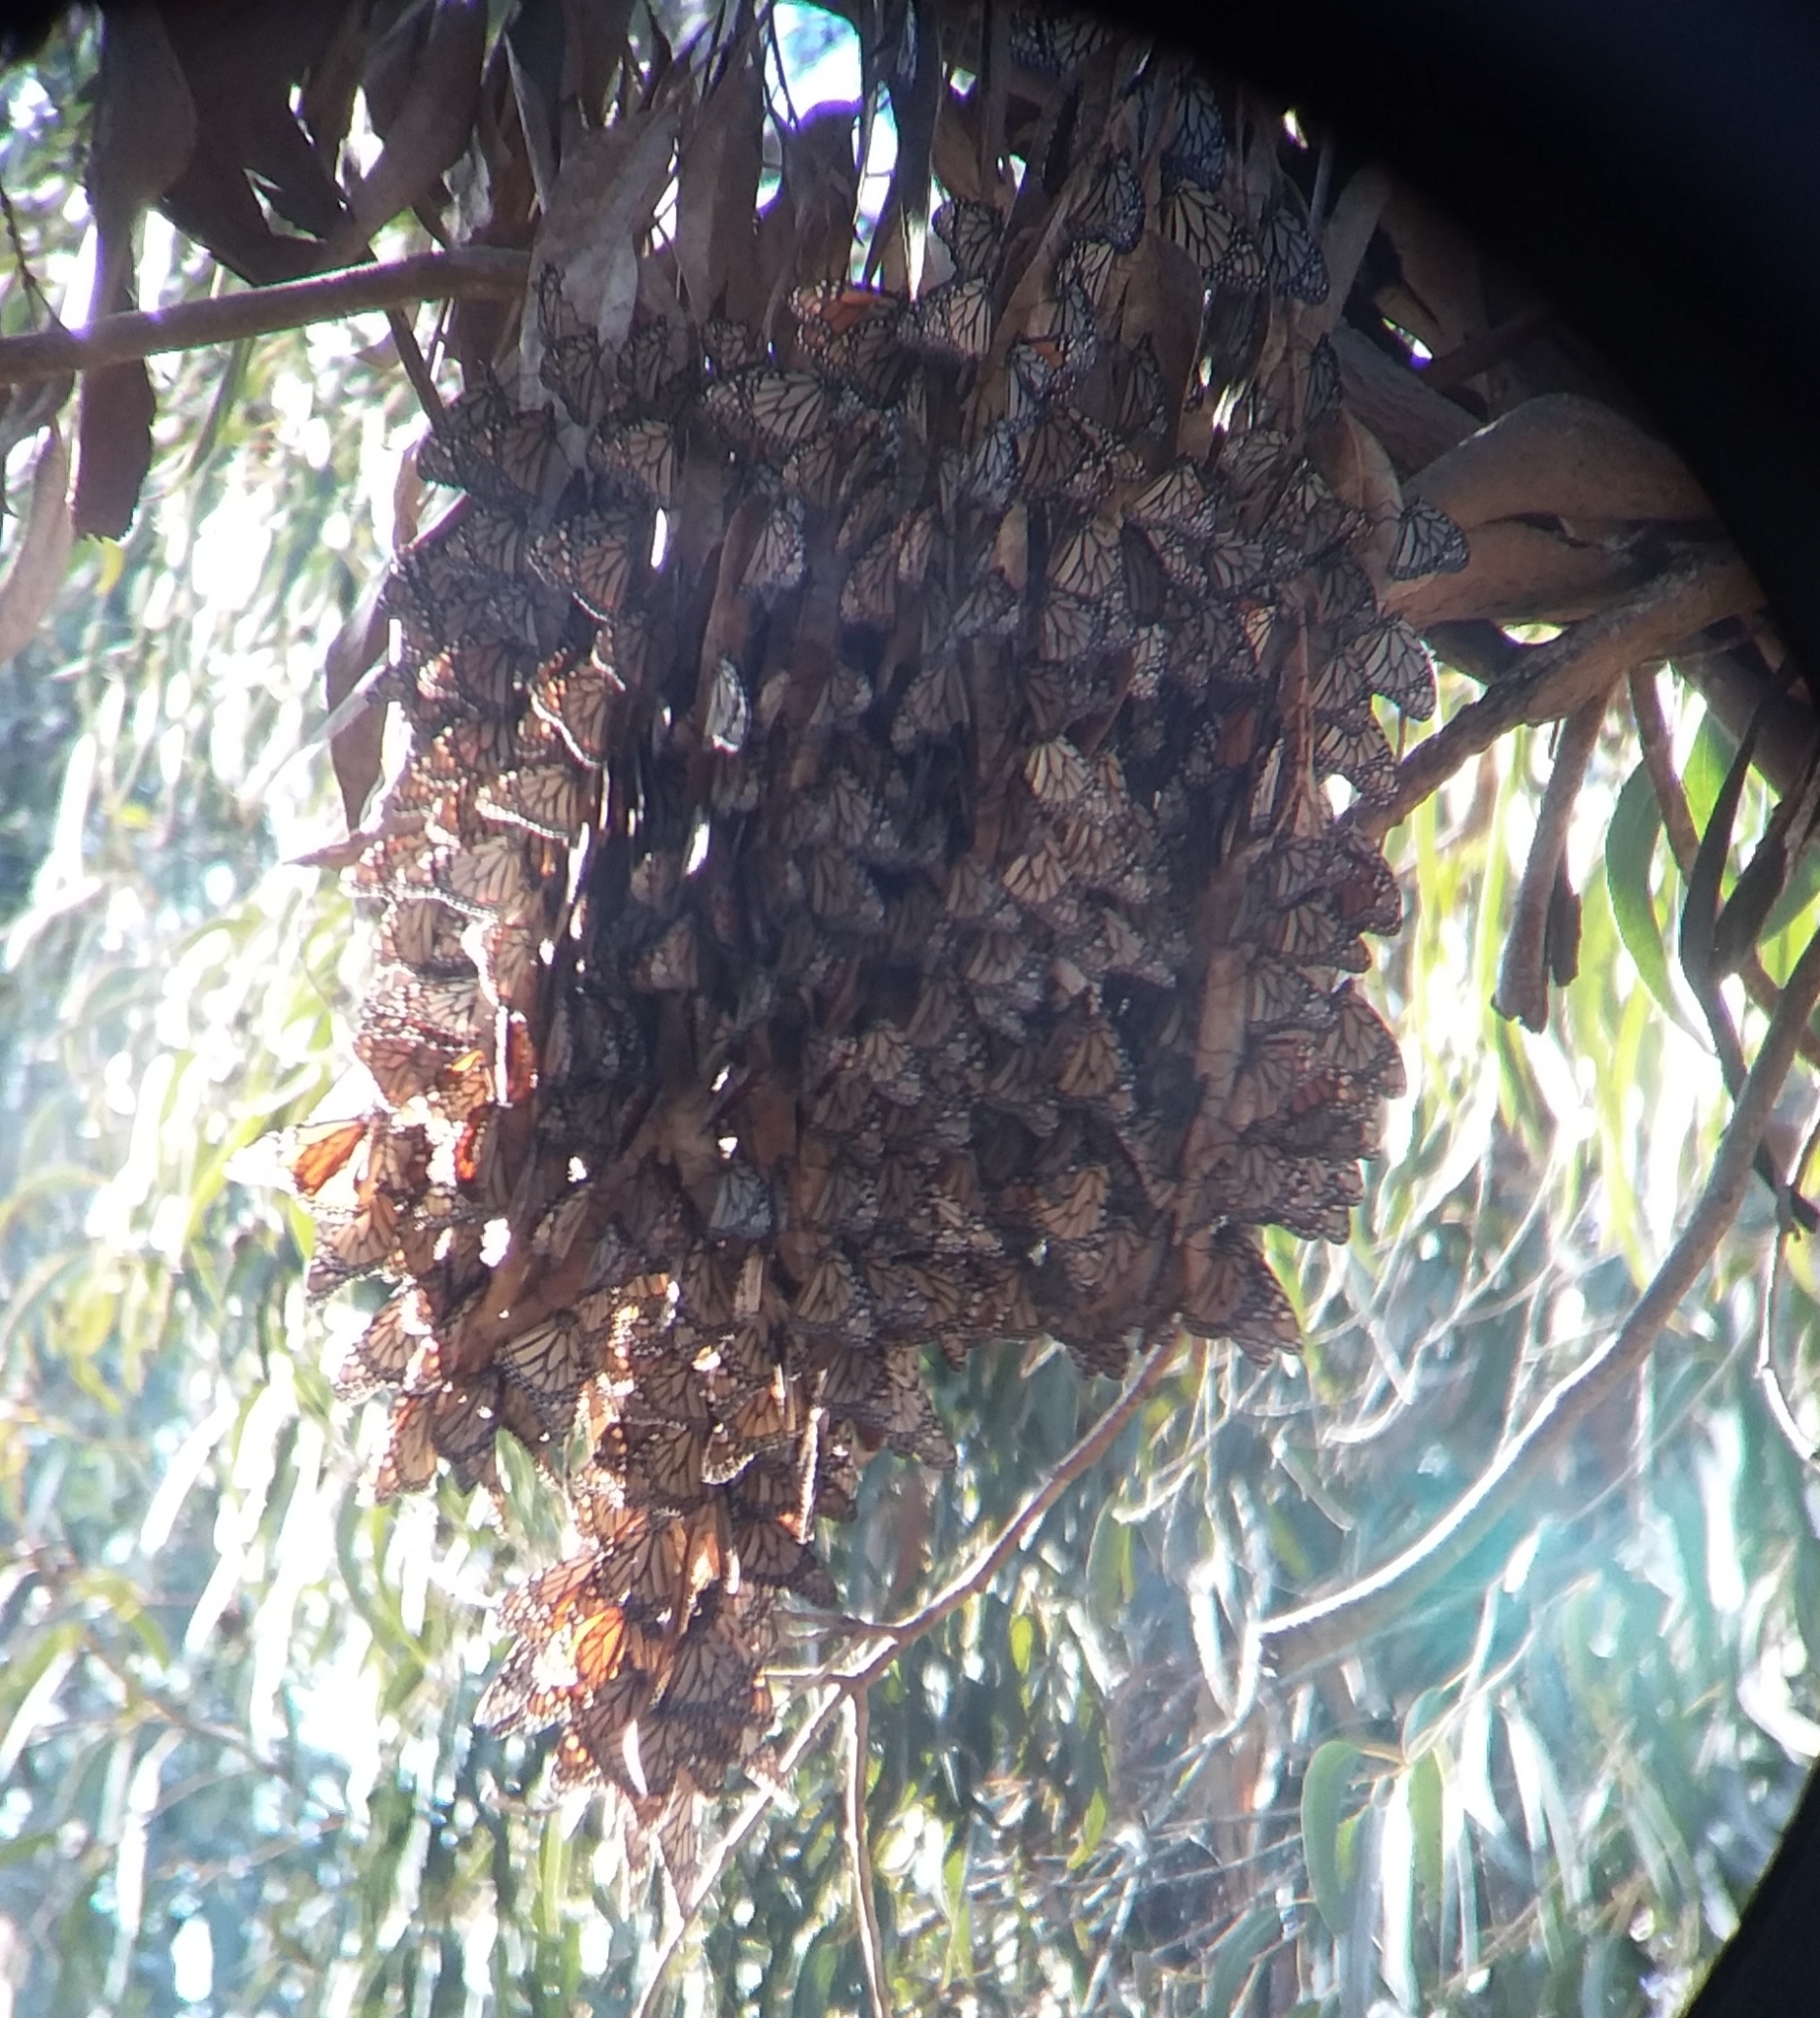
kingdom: Animalia
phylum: Arthropoda
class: Insecta
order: Lepidoptera
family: Nymphalidae
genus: Danaus
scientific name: Danaus plexippus
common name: Monarch
